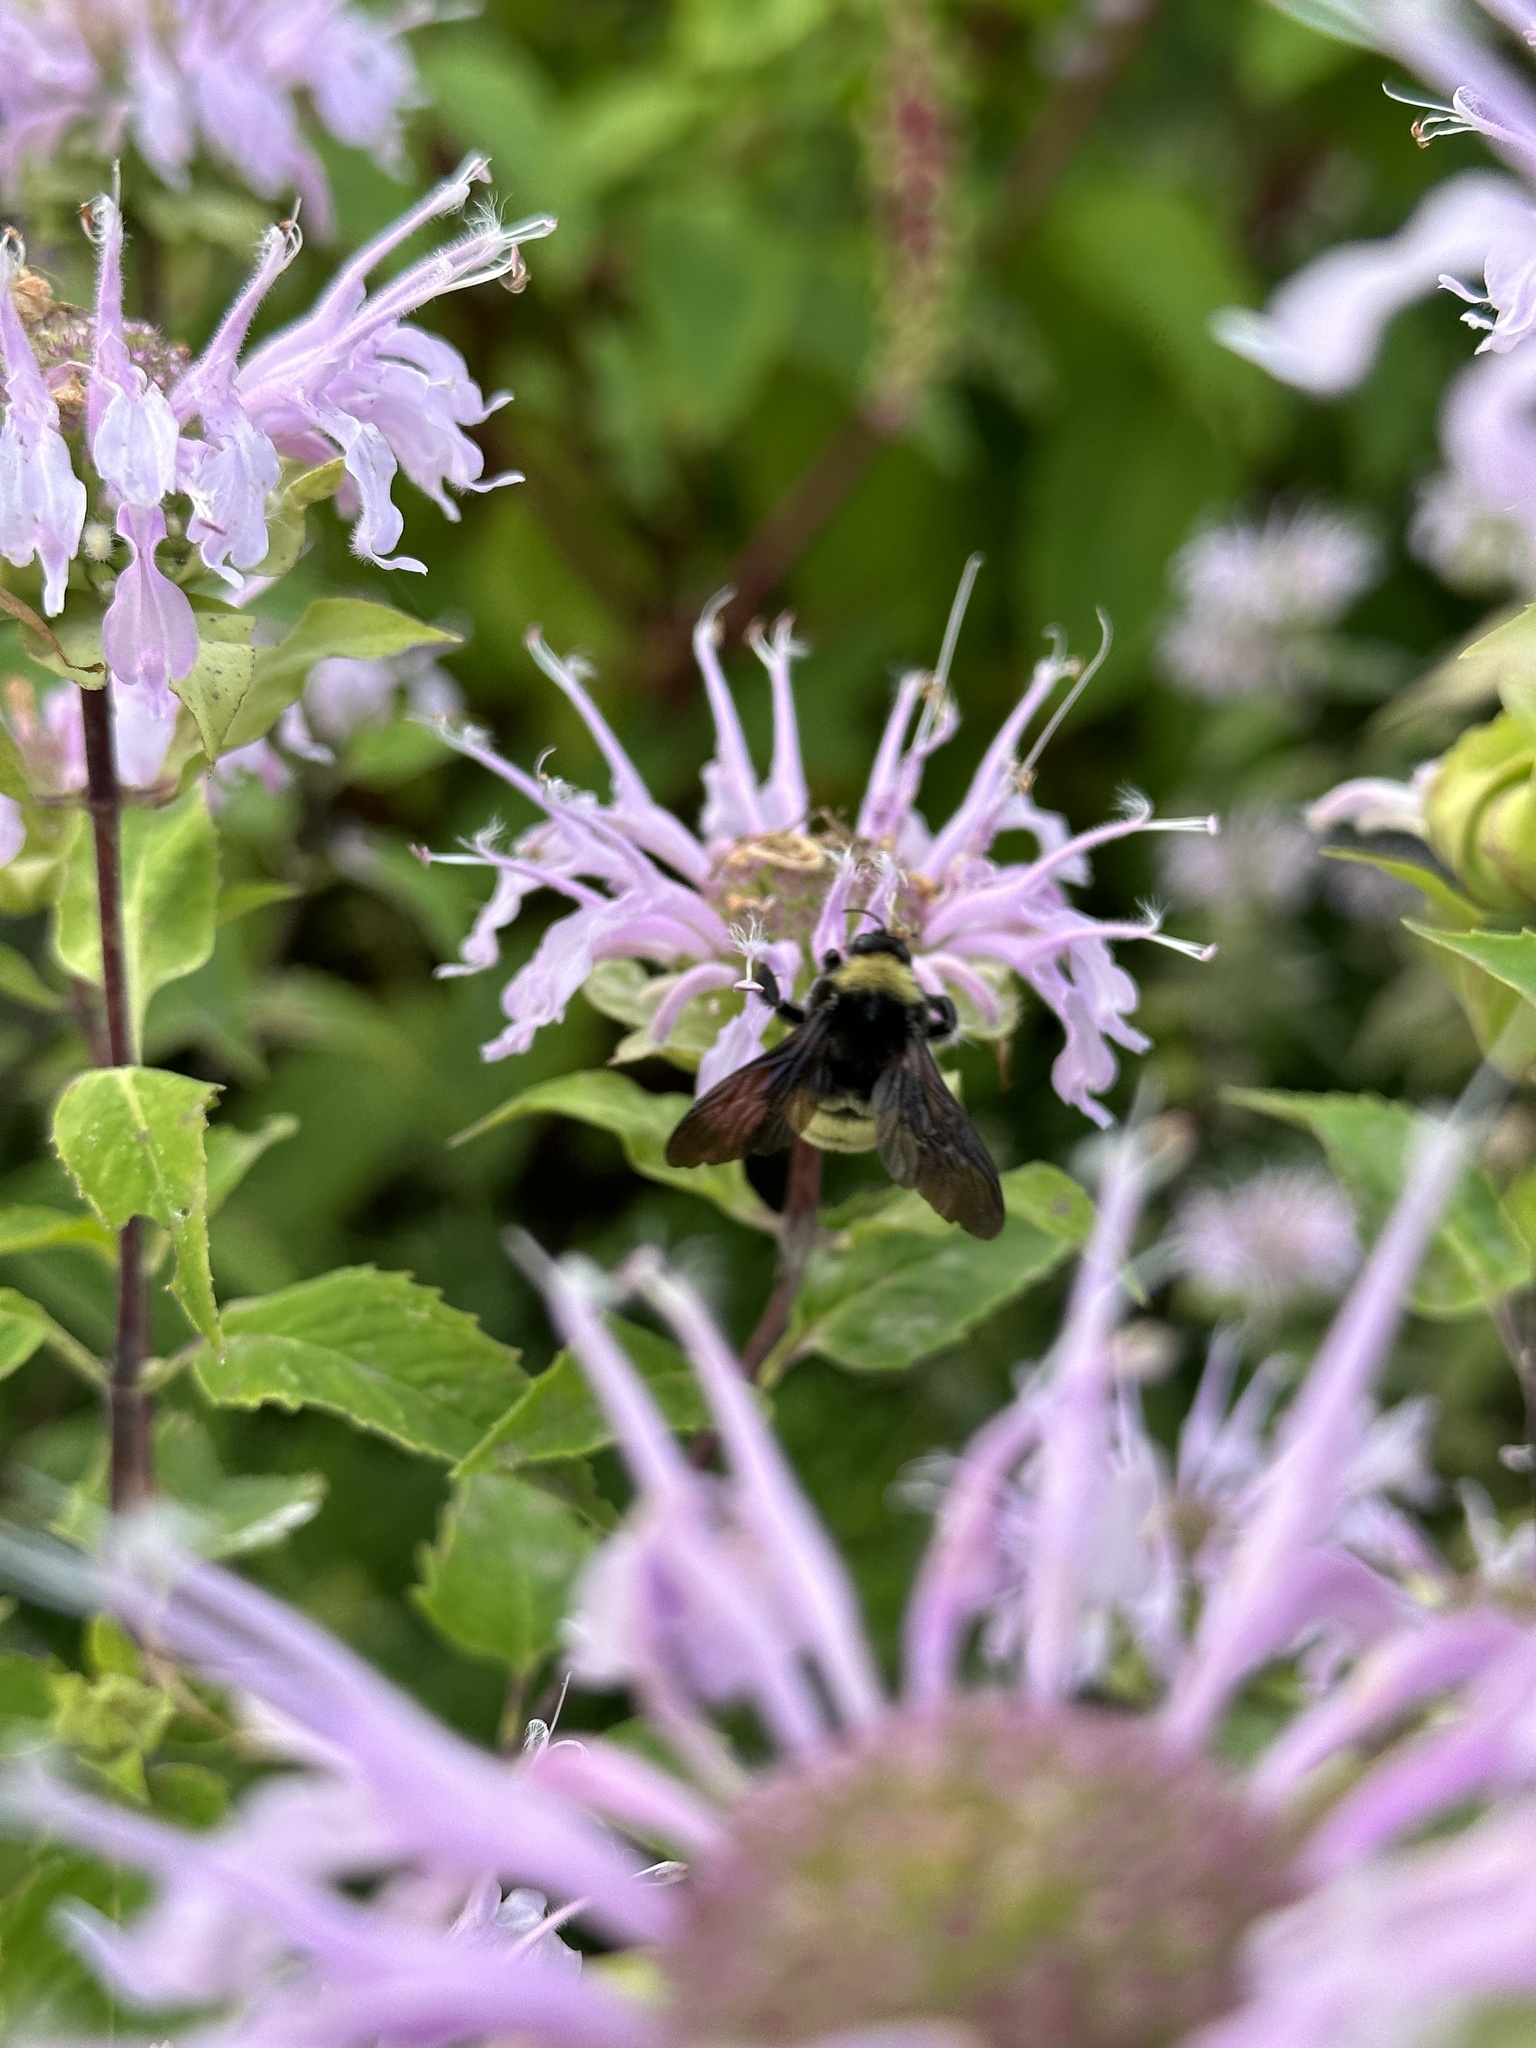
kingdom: Animalia
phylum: Arthropoda
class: Insecta
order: Hymenoptera
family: Apidae
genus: Bombus
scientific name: Bombus pensylvanicus
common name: Bumble bee
